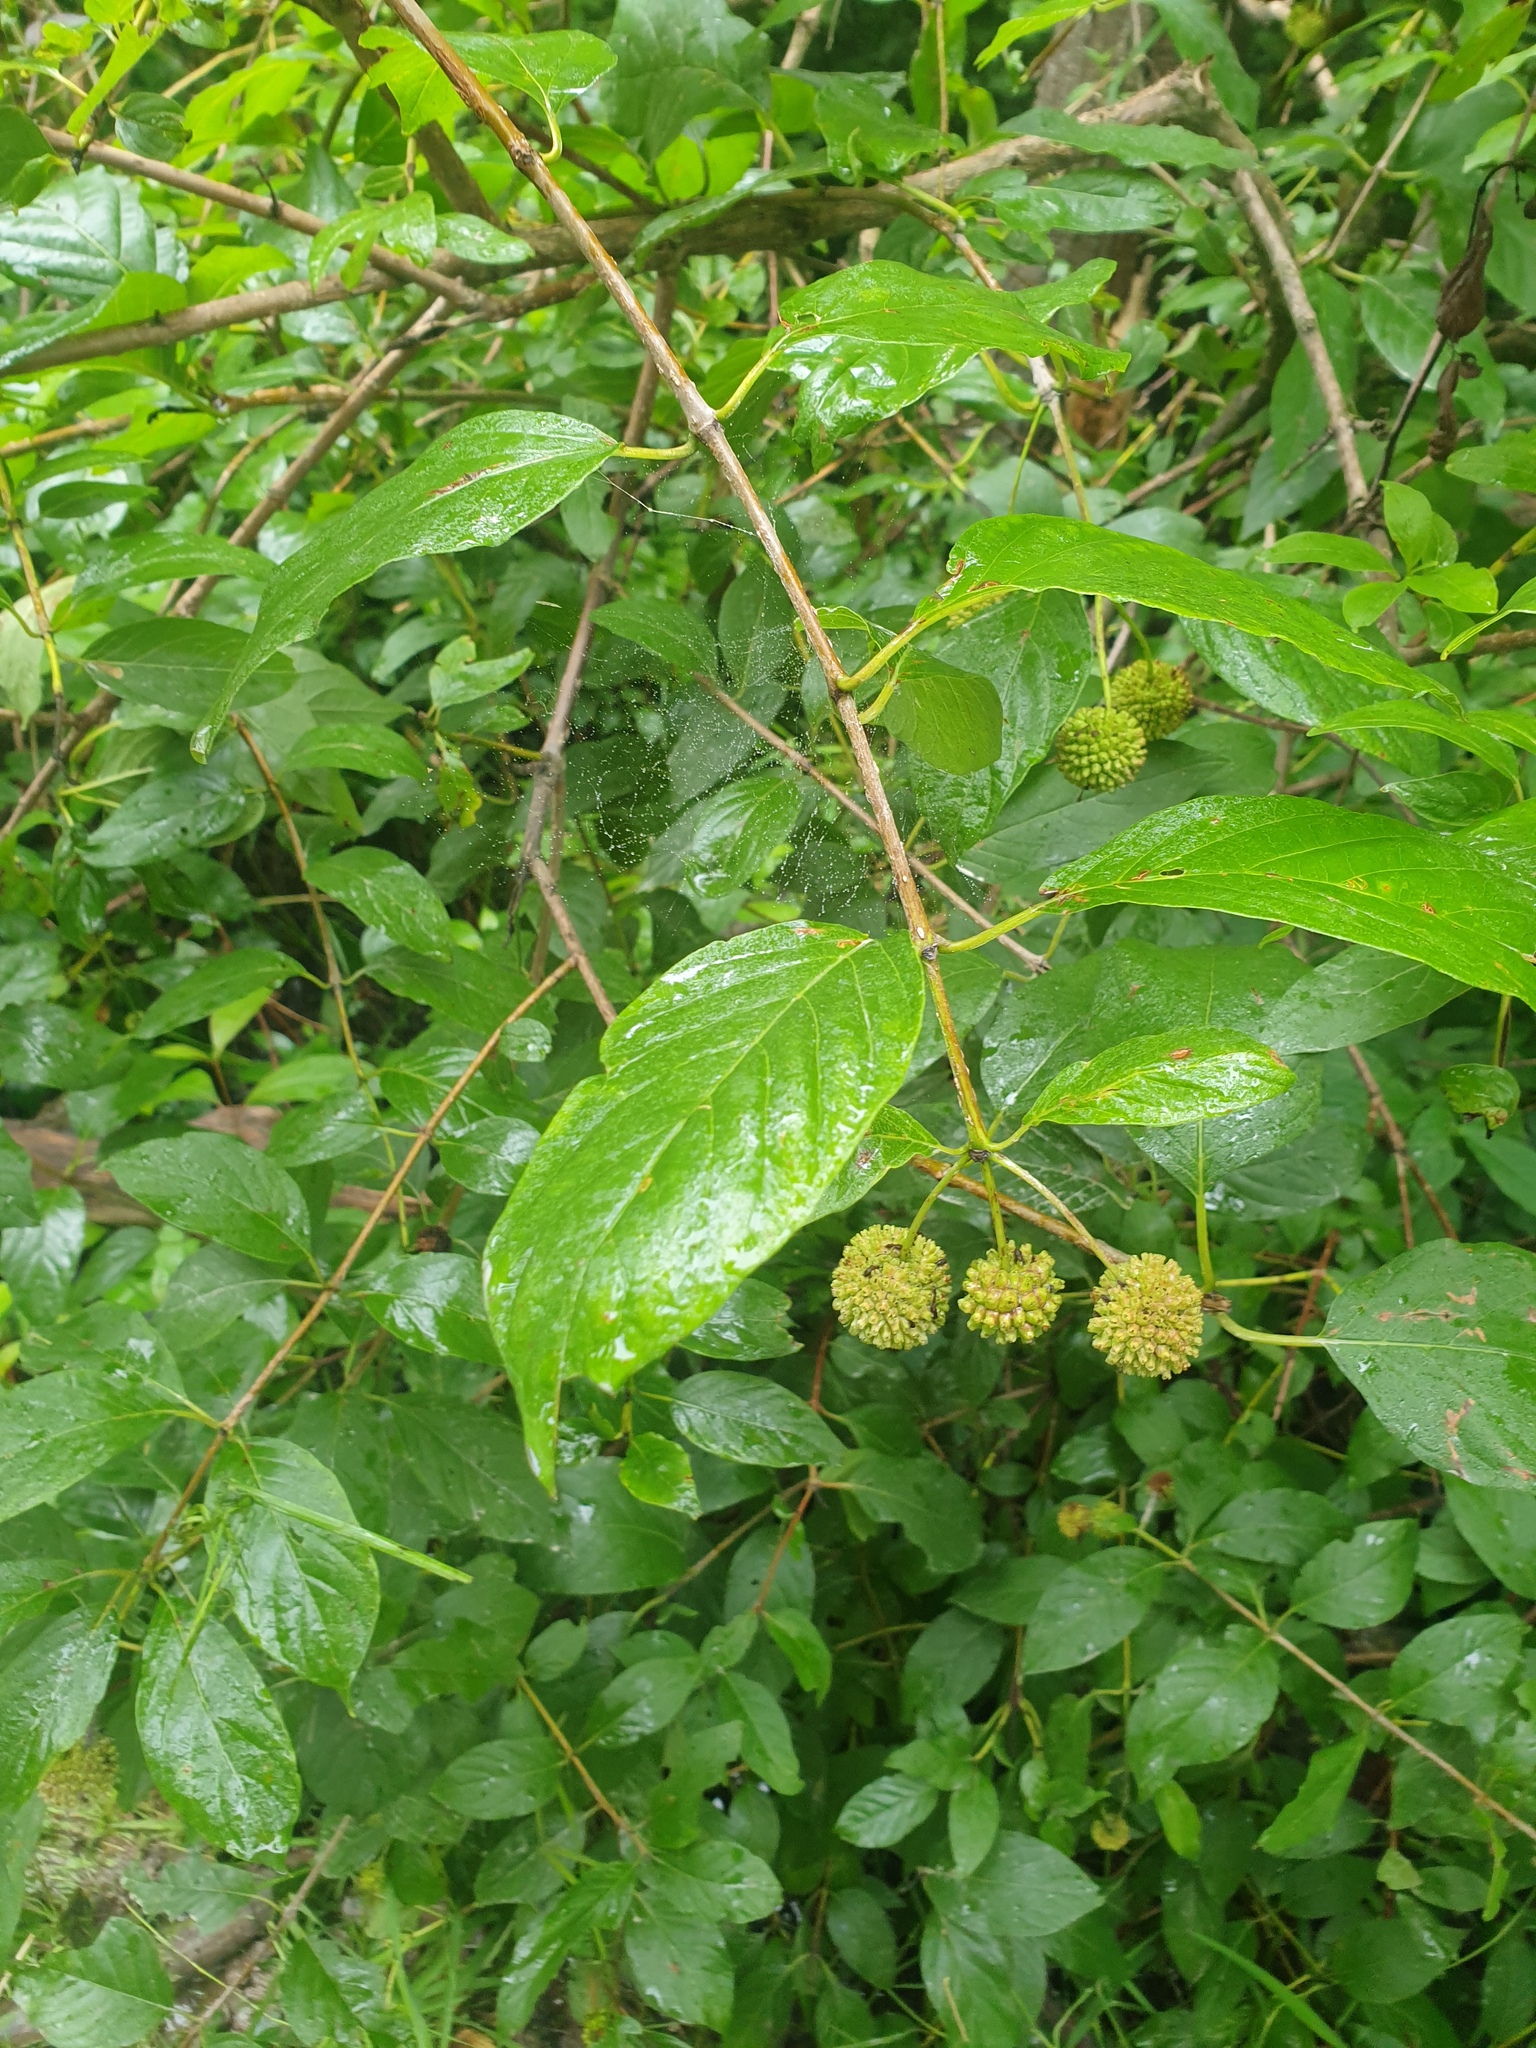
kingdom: Plantae
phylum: Tracheophyta
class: Magnoliopsida
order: Gentianales
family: Rubiaceae
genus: Cephalanthus
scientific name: Cephalanthus occidentalis
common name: Button-willow
